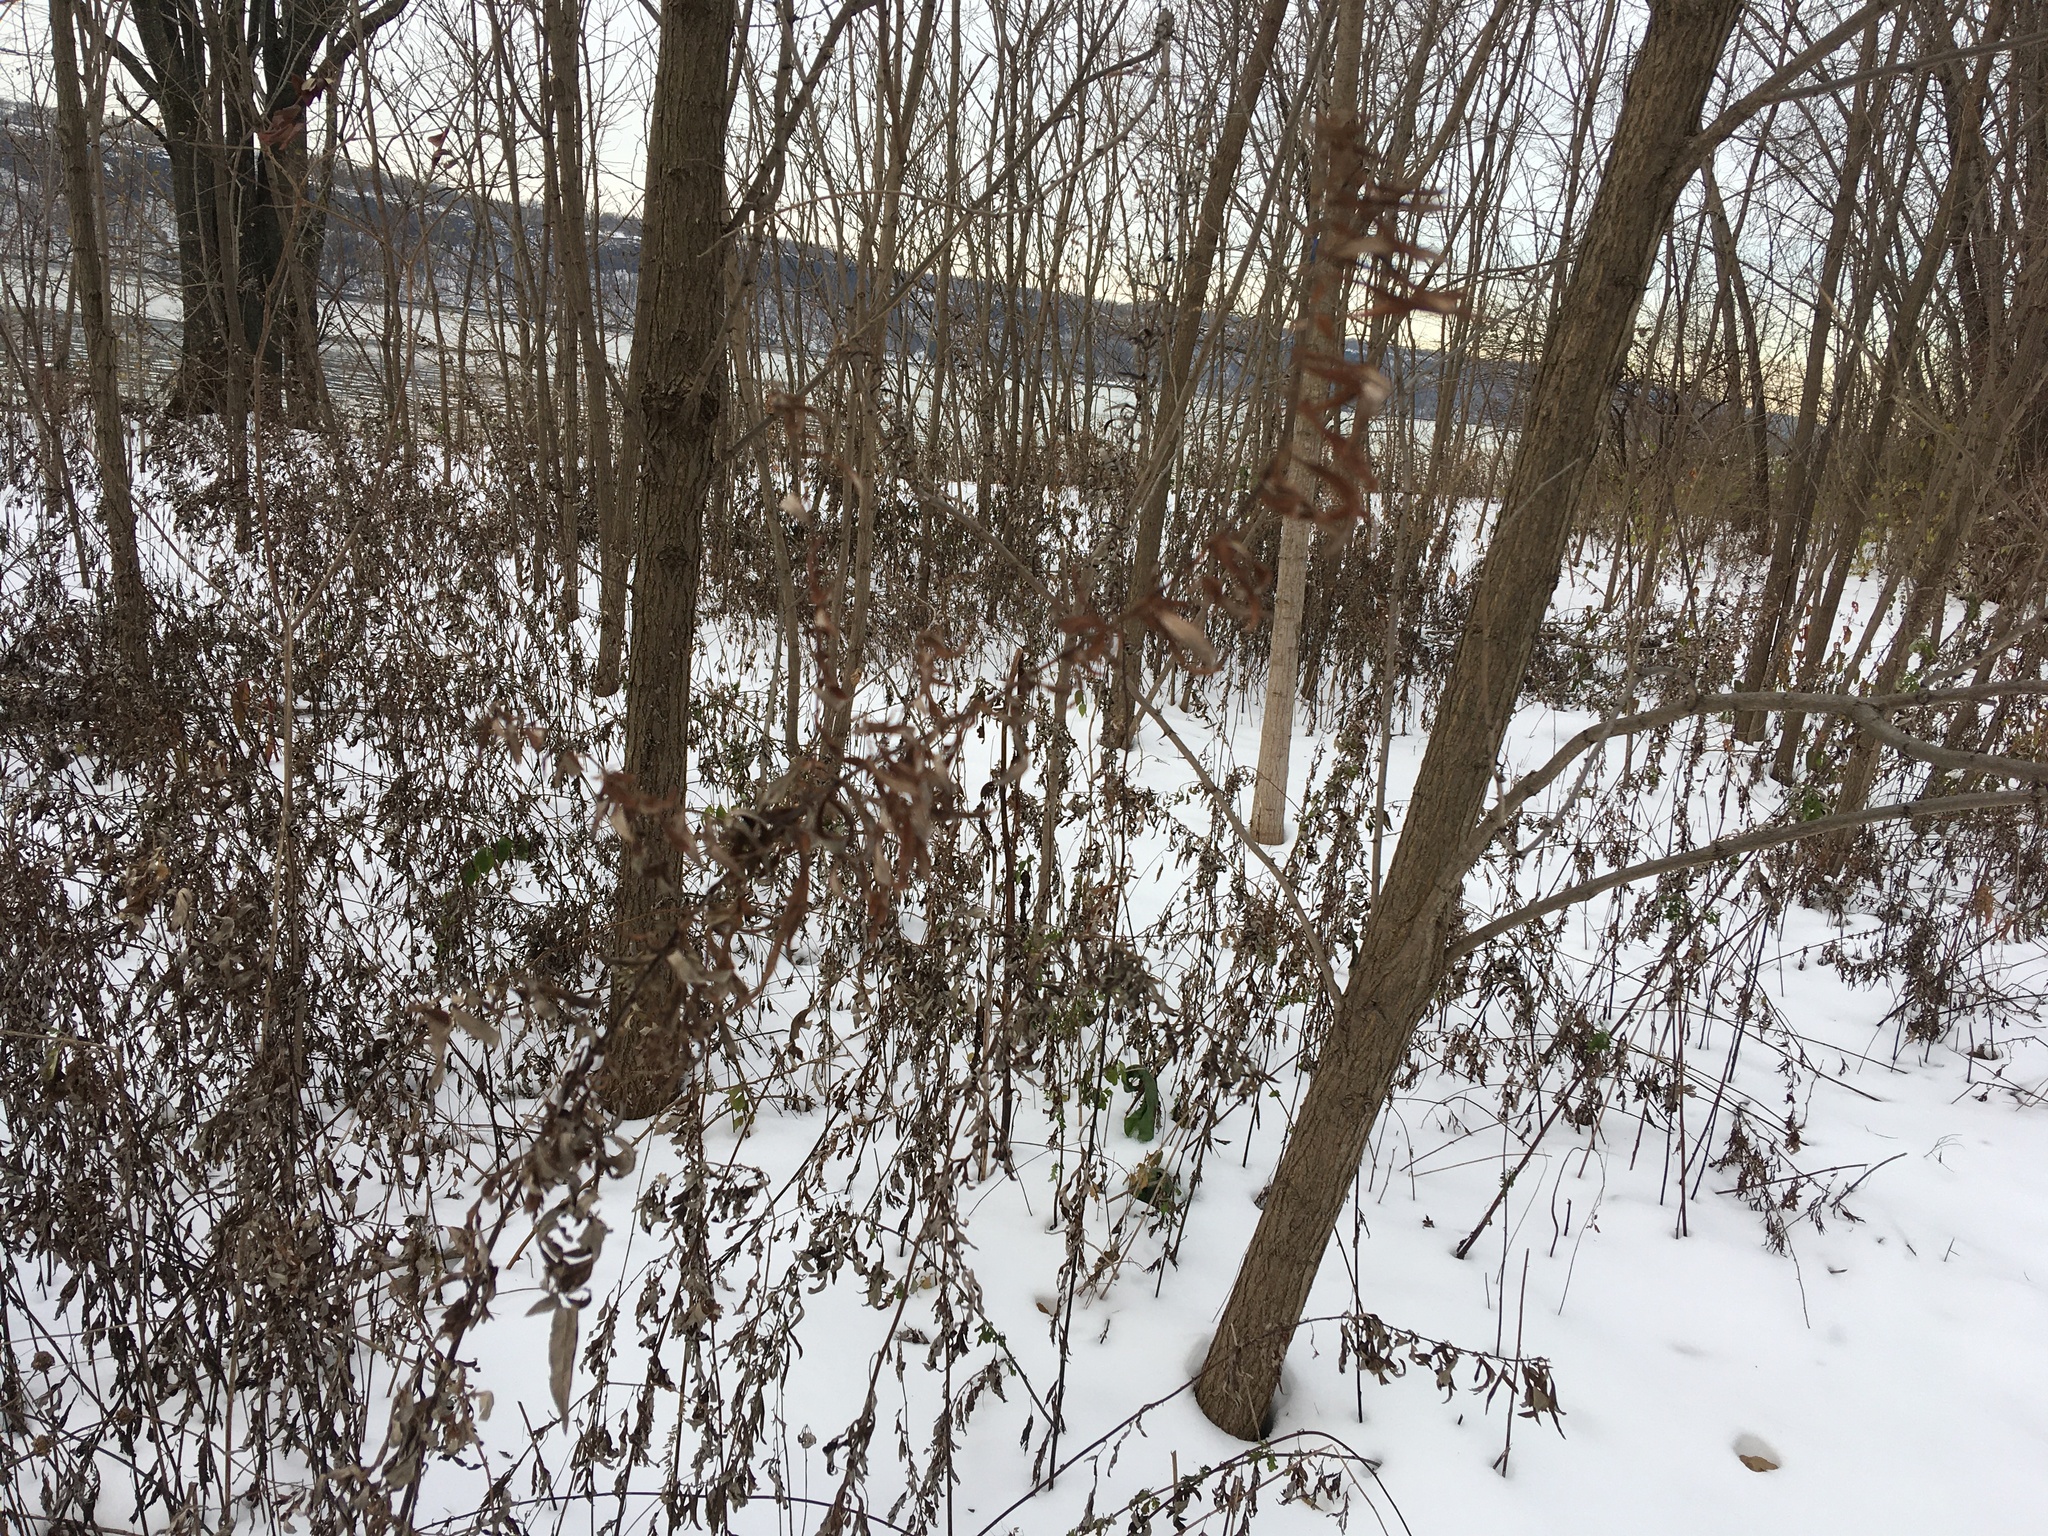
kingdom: Plantae
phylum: Tracheophyta
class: Magnoliopsida
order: Asterales
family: Asteraceae
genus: Artemisia
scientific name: Artemisia vulgaris
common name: Mugwort
